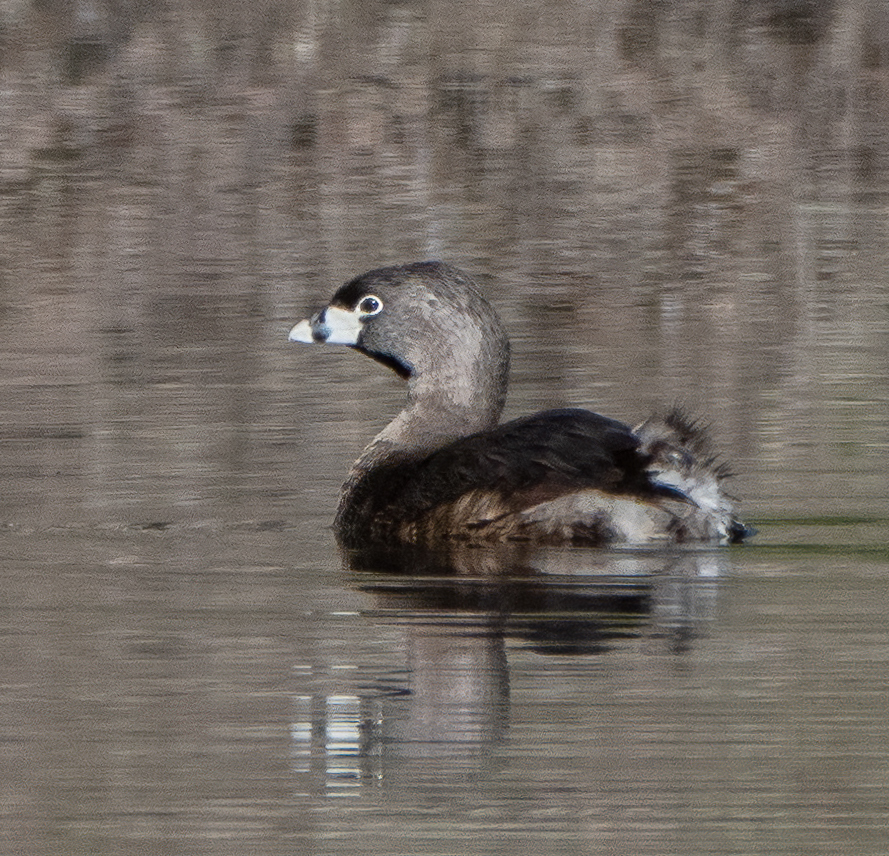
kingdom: Animalia
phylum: Chordata
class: Aves
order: Podicipediformes
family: Podicipedidae
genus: Podilymbus
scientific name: Podilymbus podiceps
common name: Pied-billed grebe
